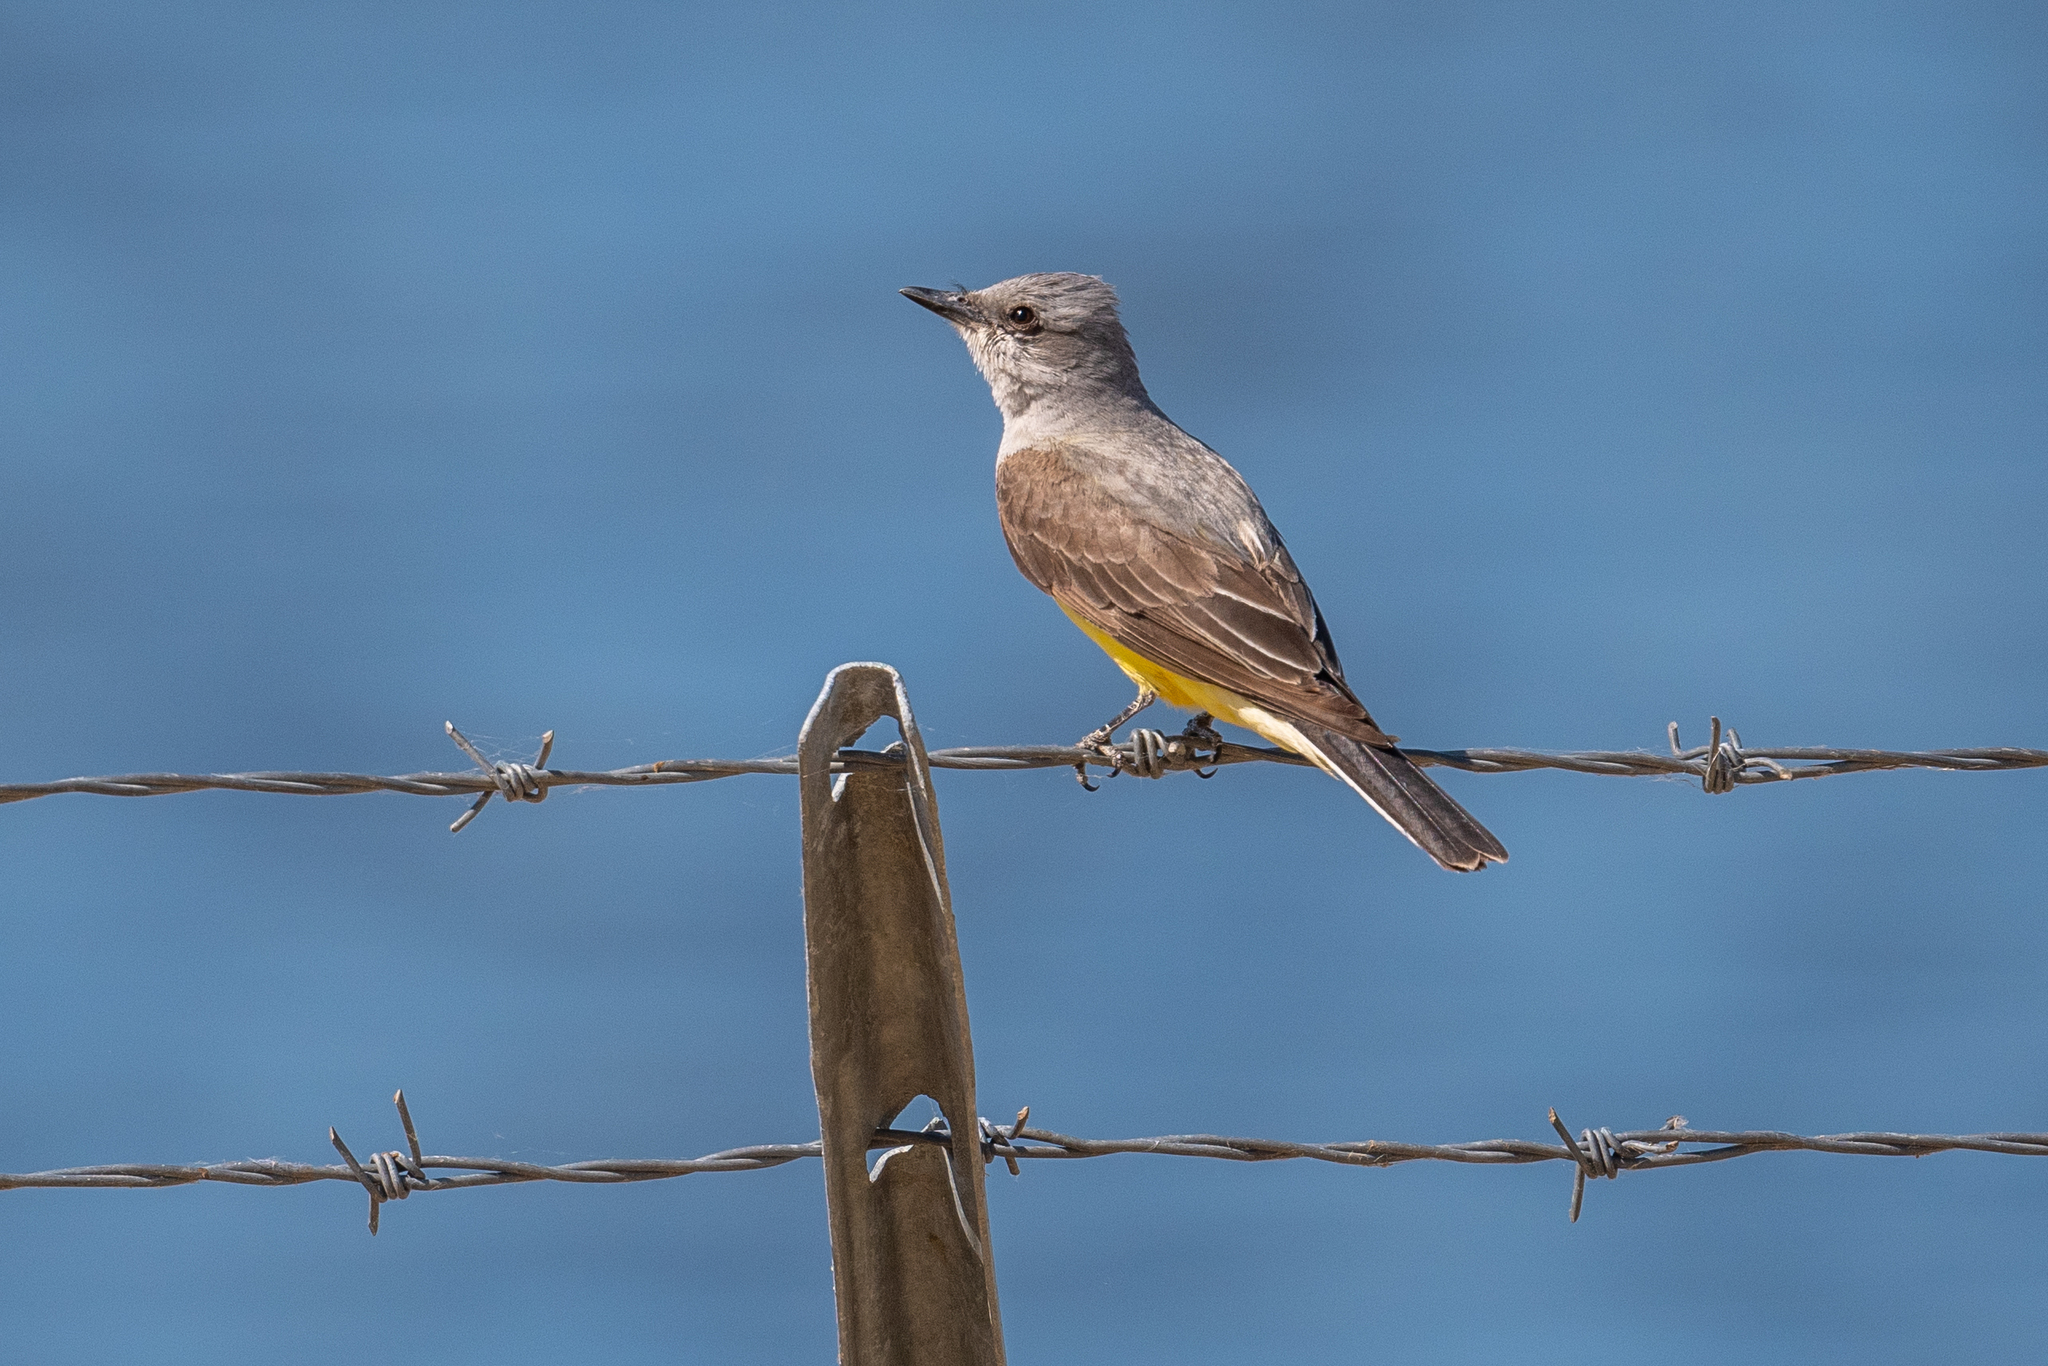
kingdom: Animalia
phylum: Chordata
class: Aves
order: Passeriformes
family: Tyrannidae
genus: Tyrannus
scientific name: Tyrannus verticalis
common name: Western kingbird
